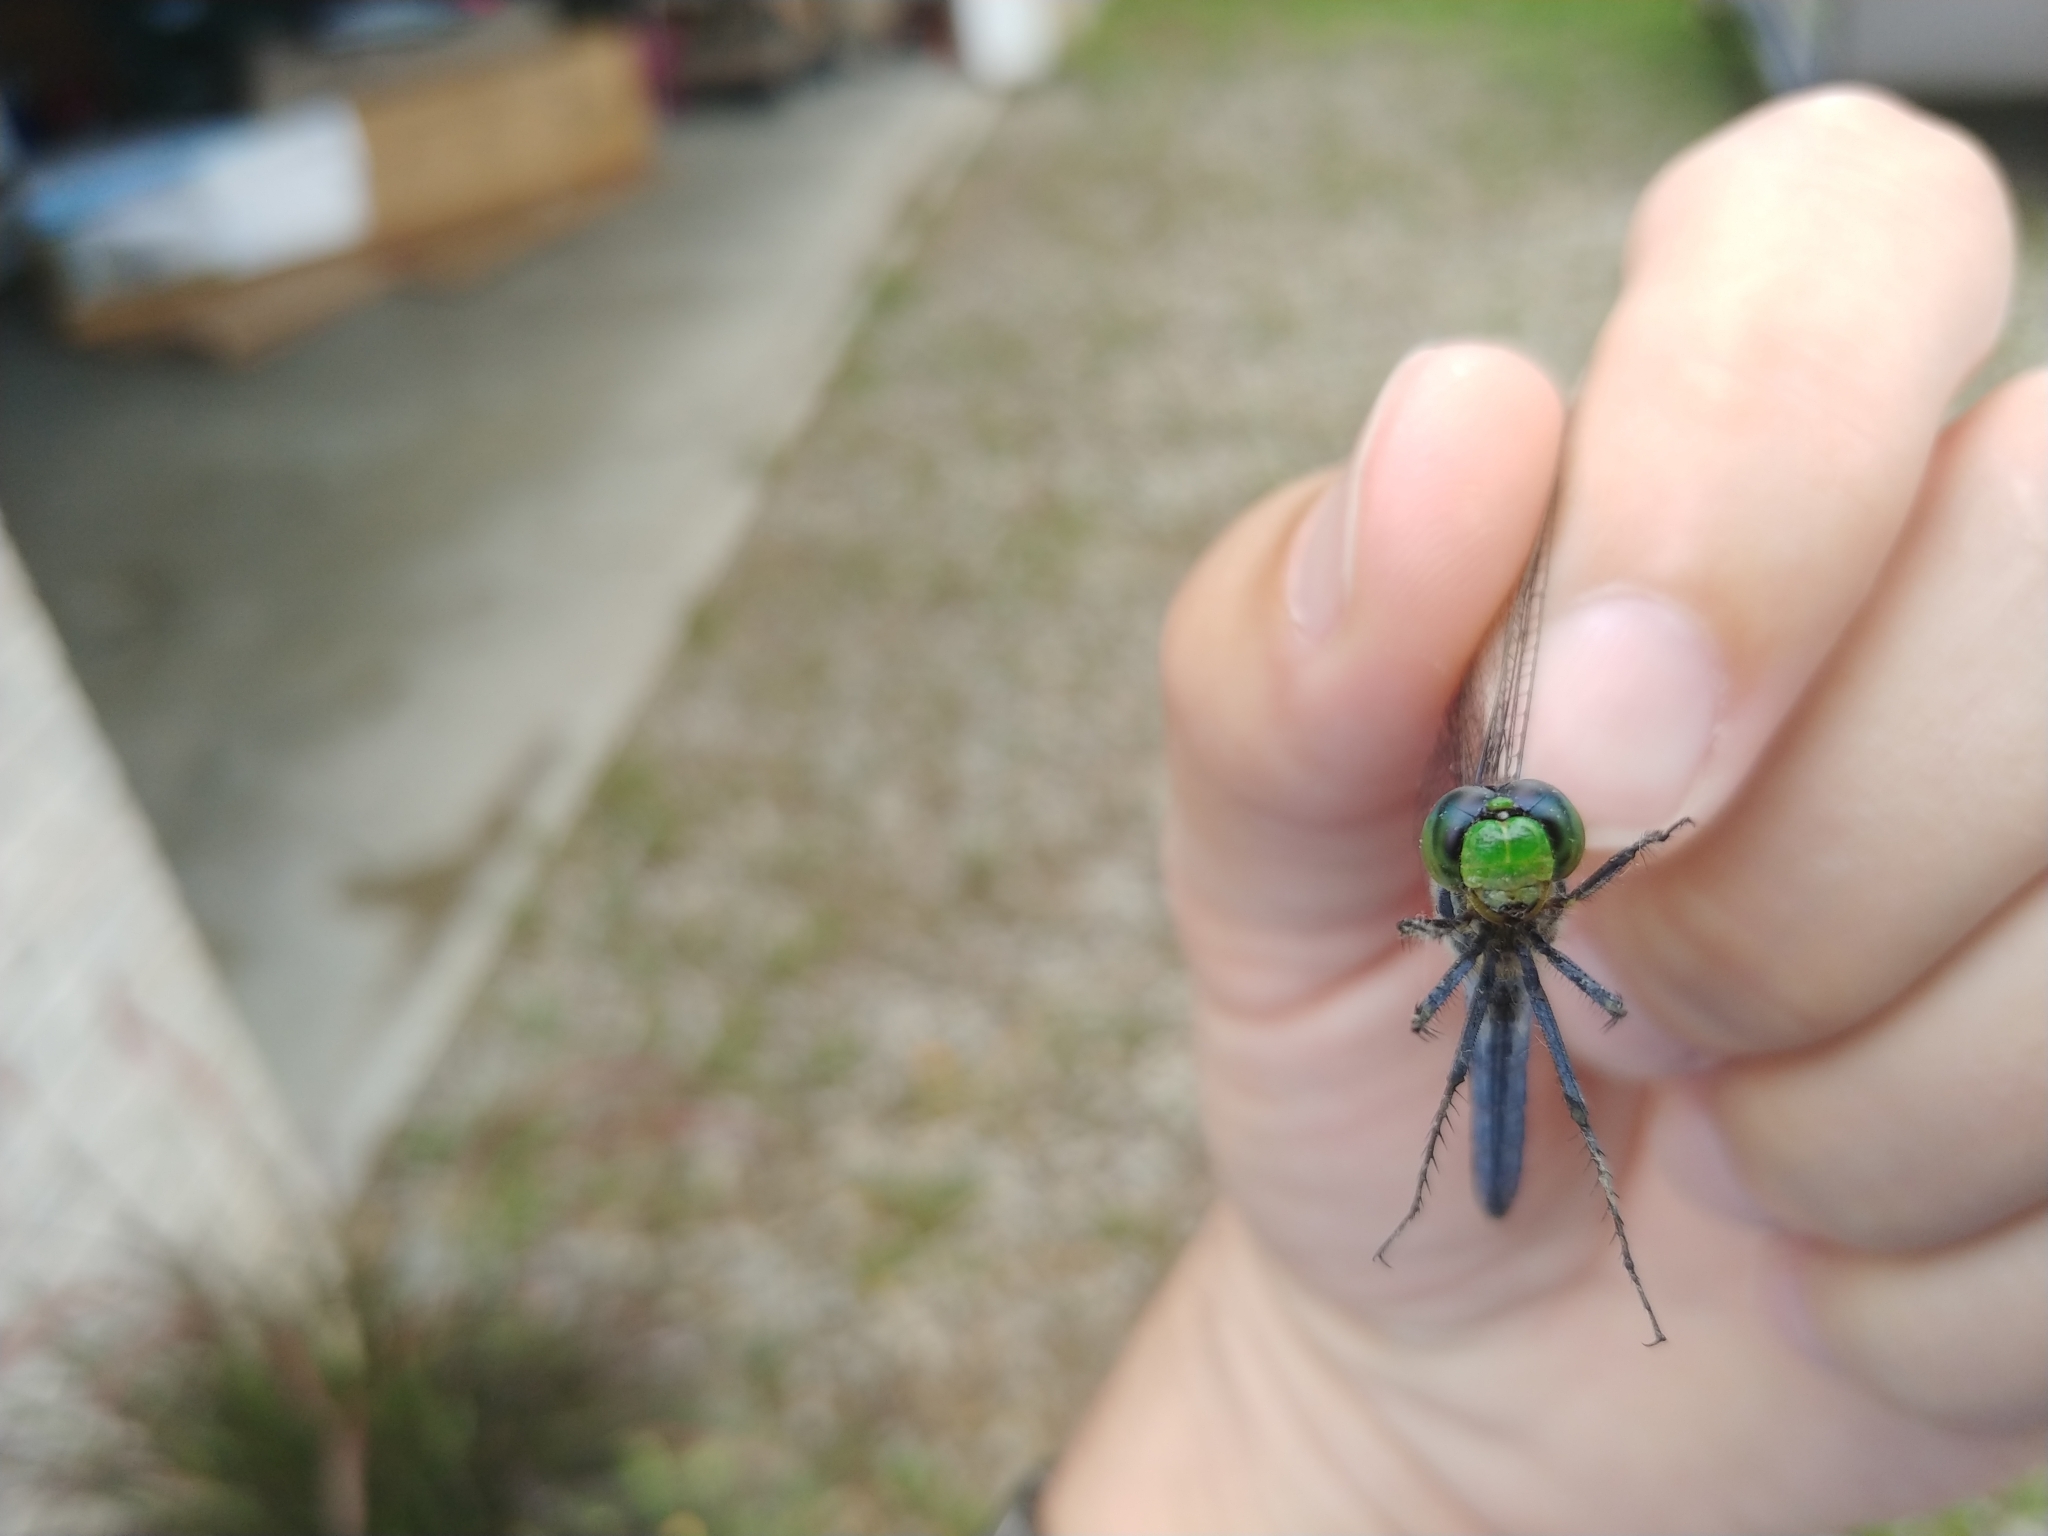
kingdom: Animalia
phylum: Arthropoda
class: Insecta
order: Odonata
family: Libellulidae
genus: Erythemis
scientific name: Erythemis simplicicollis
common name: Eastern pondhawk
